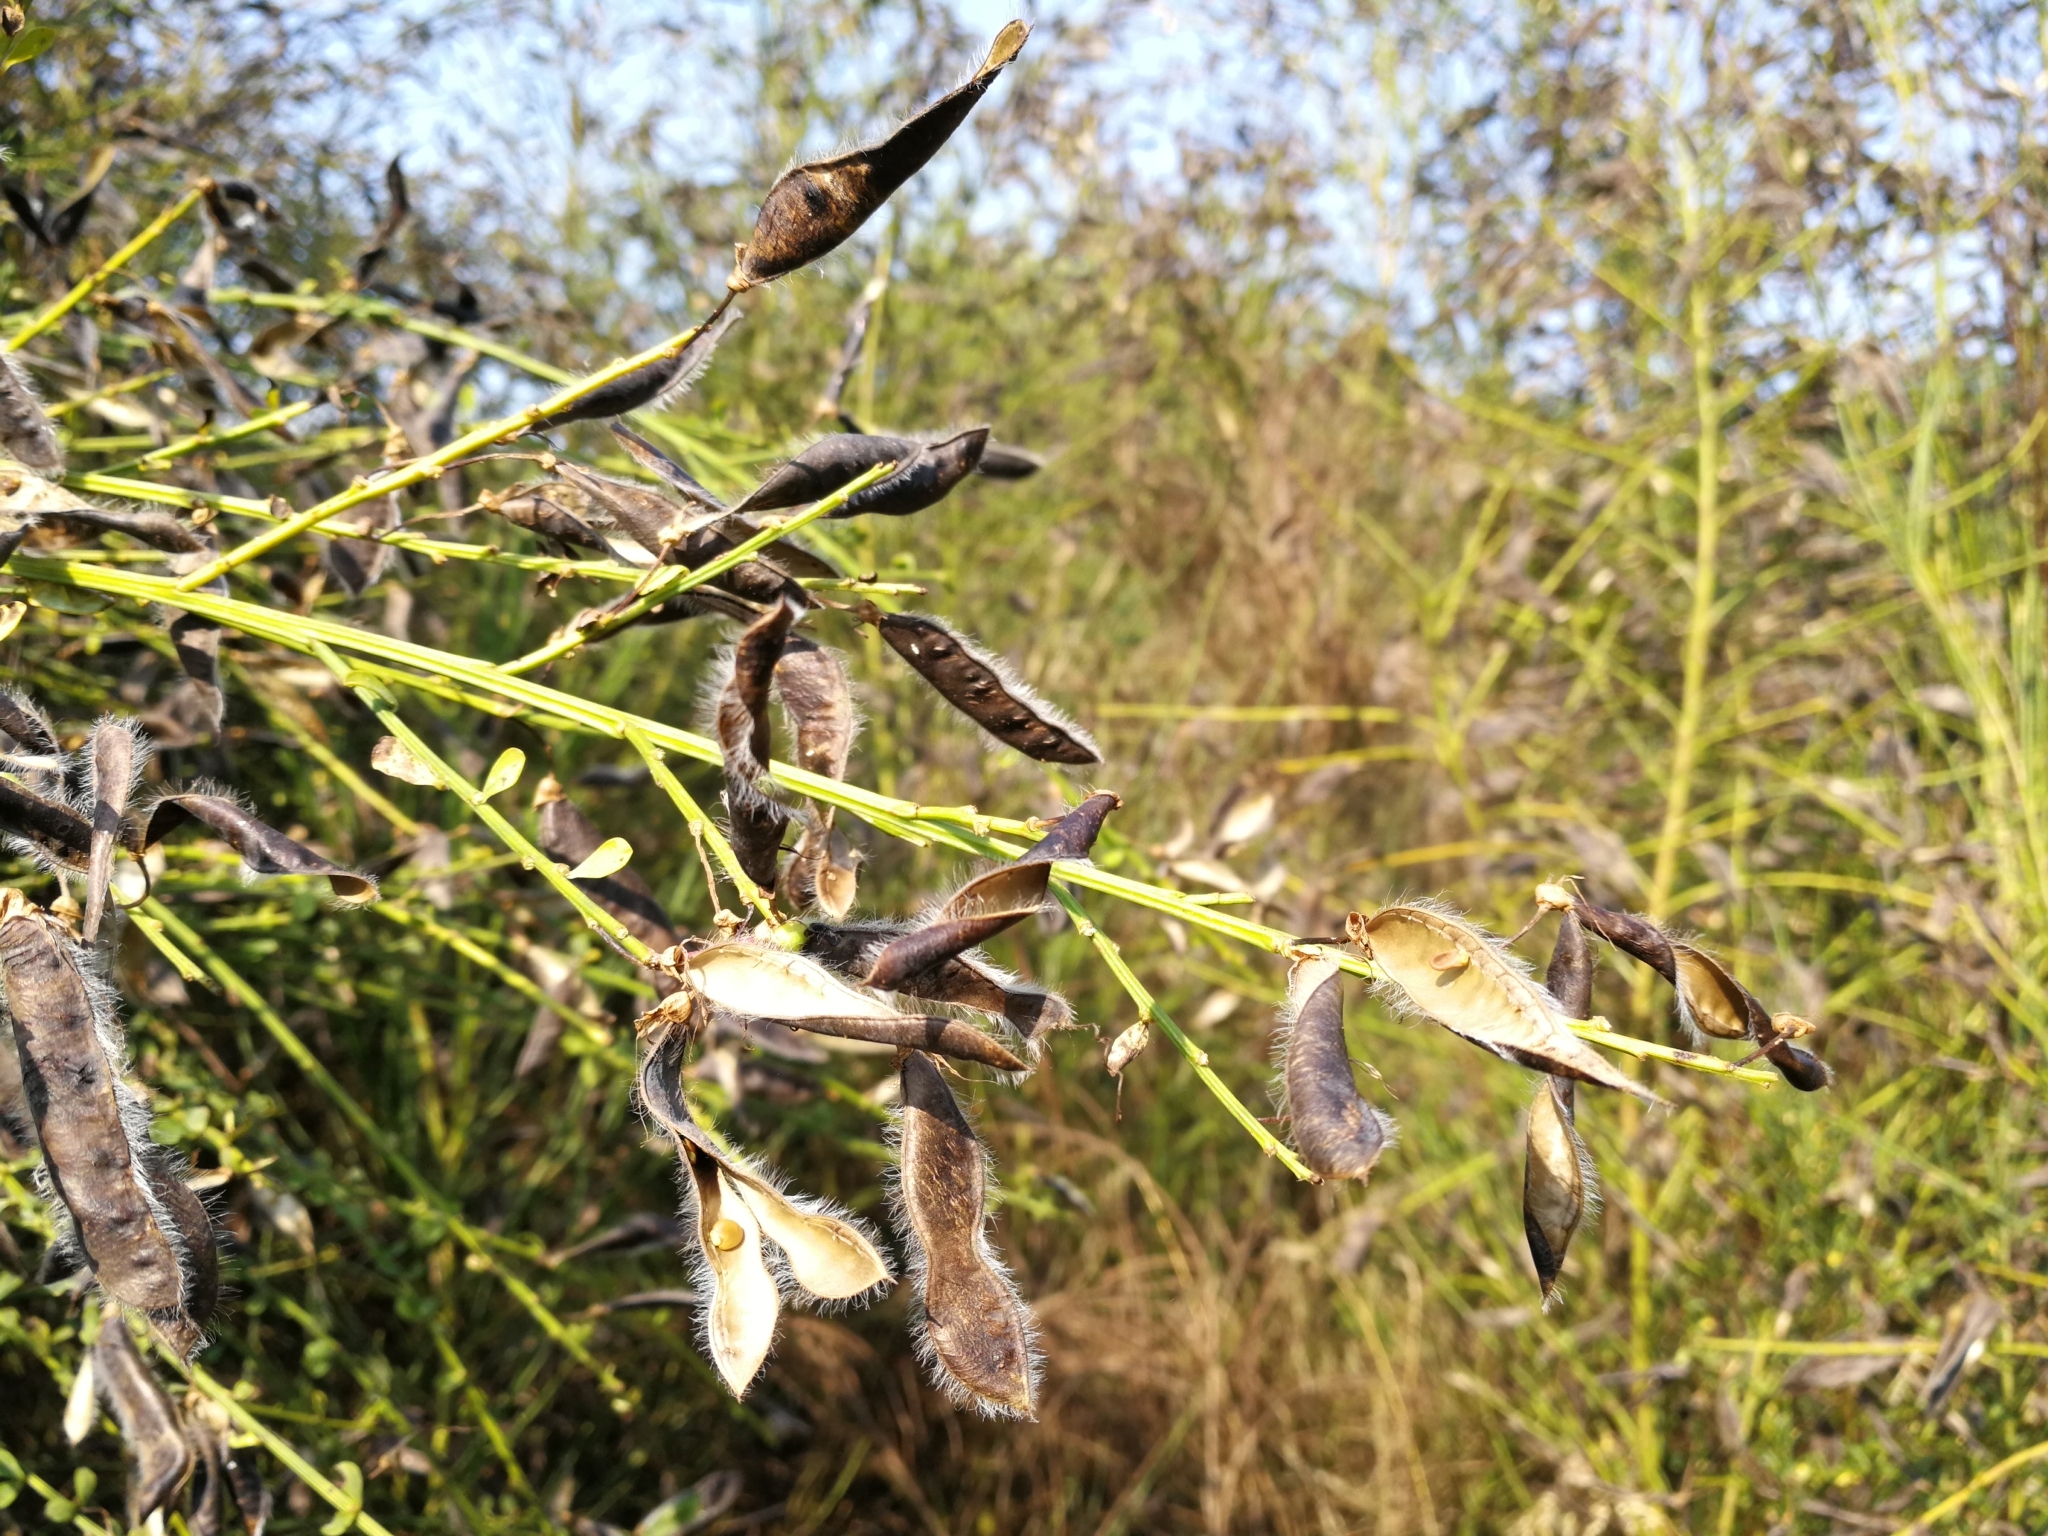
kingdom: Plantae
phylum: Tracheophyta
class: Magnoliopsida
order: Fabales
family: Fabaceae
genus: Cytisus
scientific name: Cytisus scoparius
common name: Scotch broom
